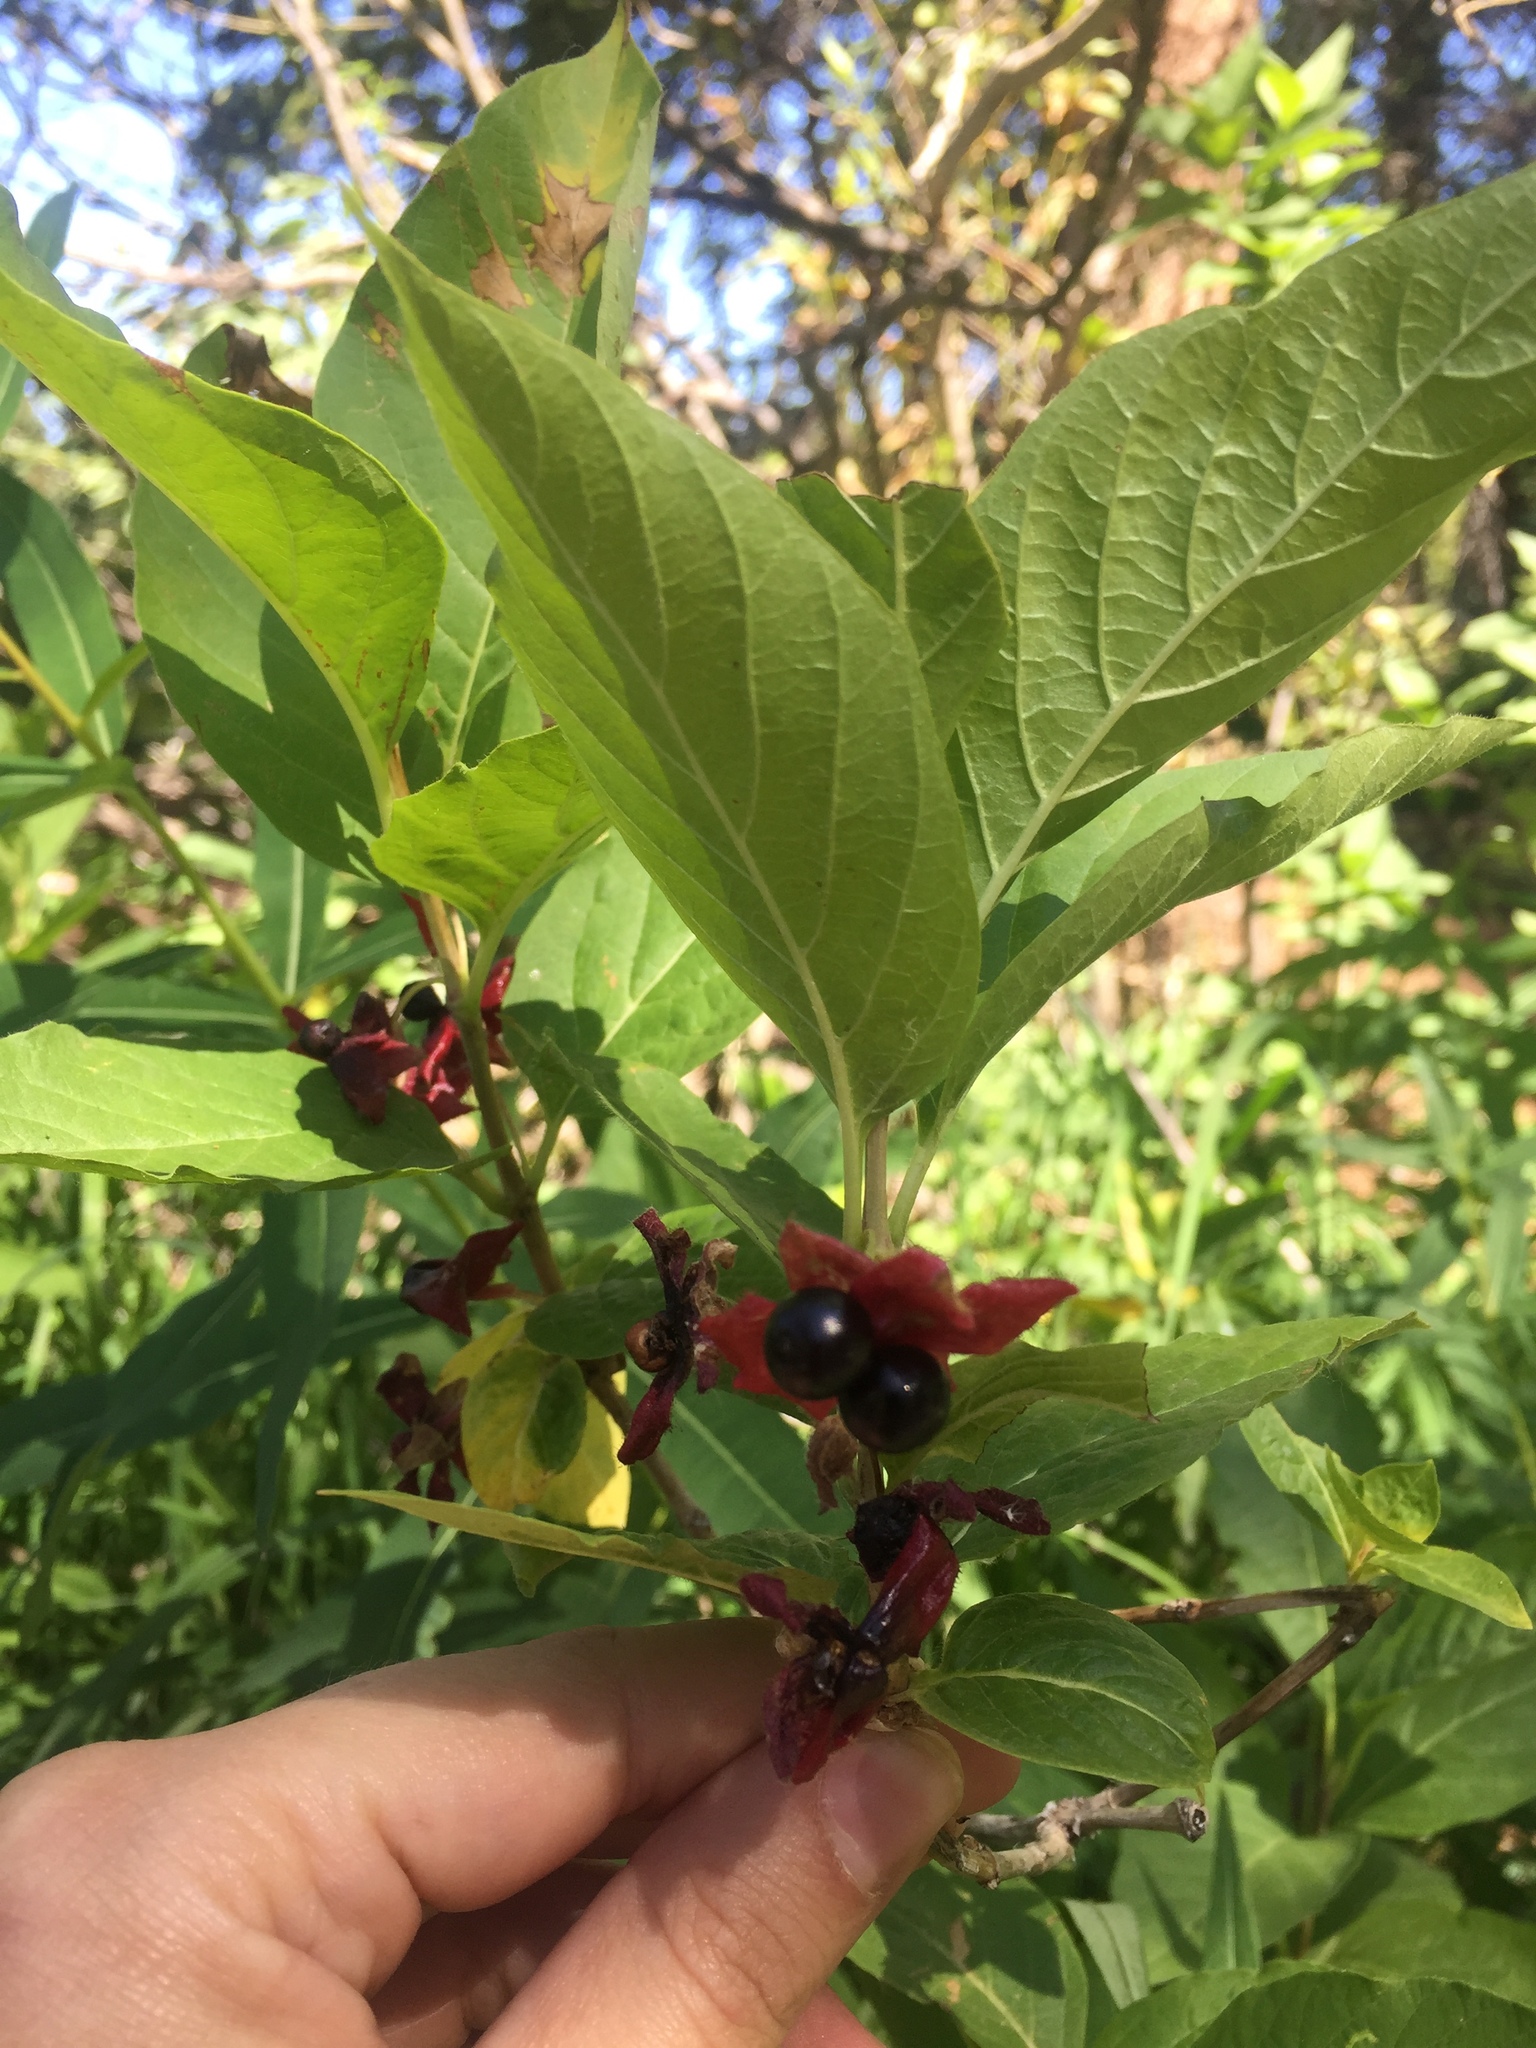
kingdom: Plantae
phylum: Tracheophyta
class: Magnoliopsida
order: Dipsacales
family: Caprifoliaceae
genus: Lonicera
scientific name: Lonicera involucrata
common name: Californian honeysuckle
